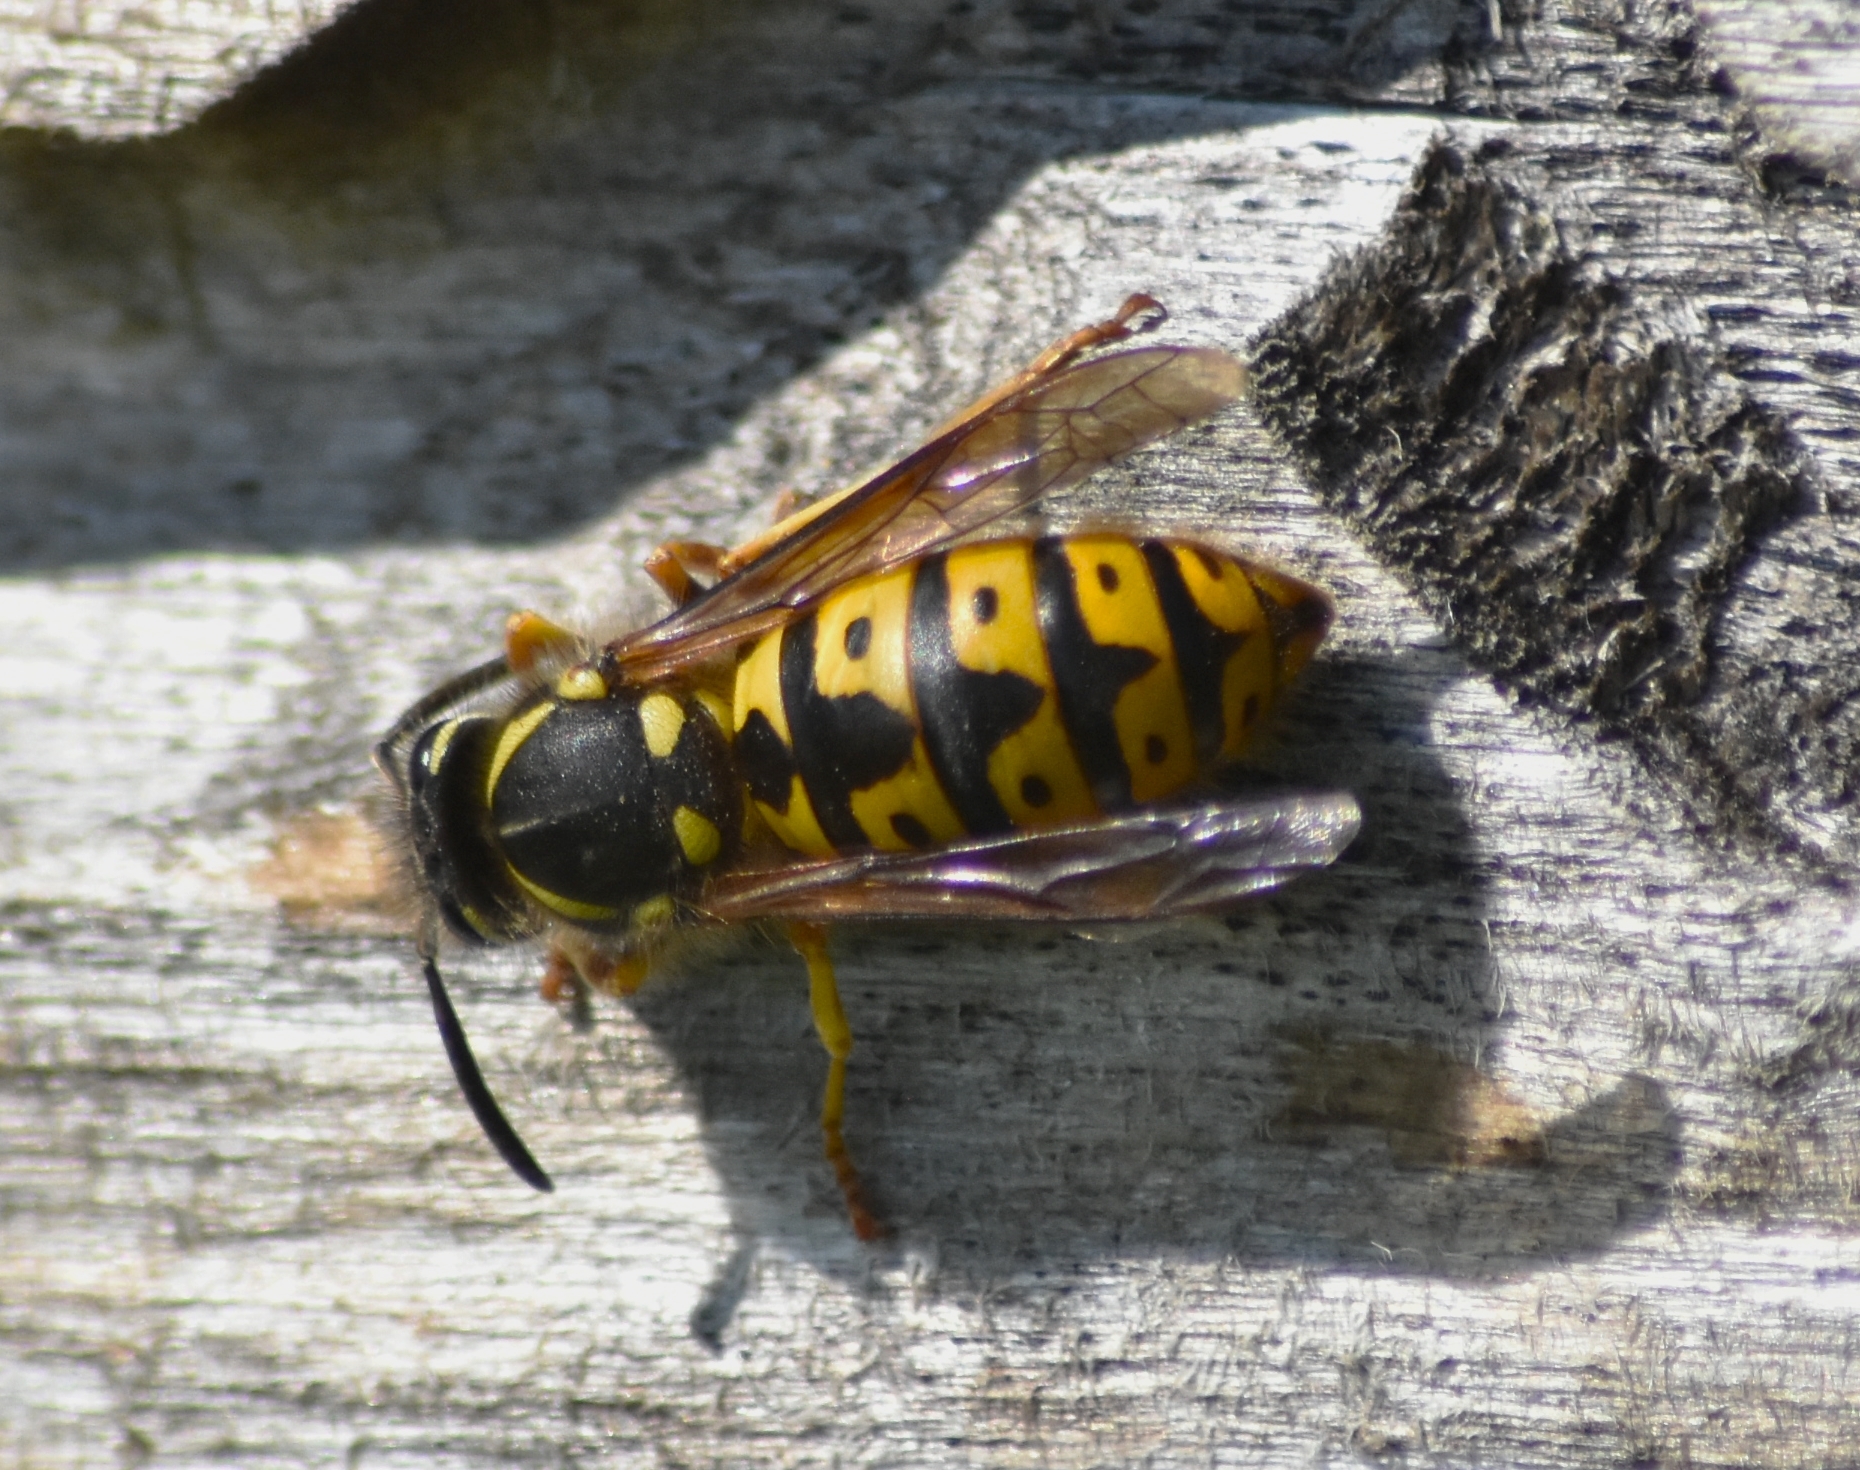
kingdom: Animalia
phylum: Arthropoda
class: Insecta
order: Hymenoptera
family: Vespidae
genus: Vespula
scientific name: Vespula germanica
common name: German wasp
